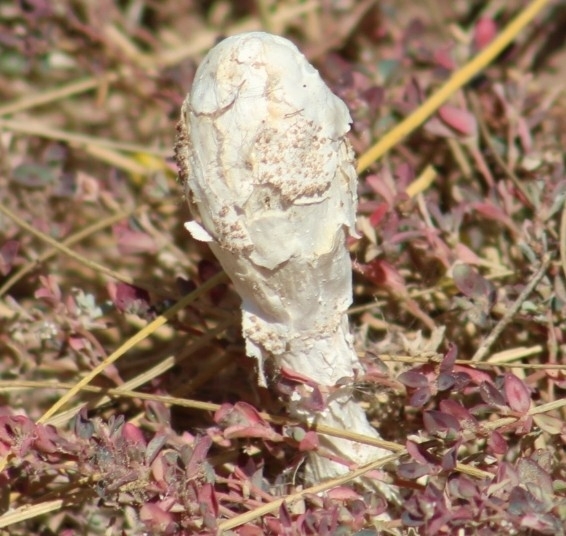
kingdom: Fungi
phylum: Basidiomycota
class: Agaricomycetes
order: Agaricales
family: Agaricaceae
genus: Podaxis
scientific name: Podaxis pistillaris
